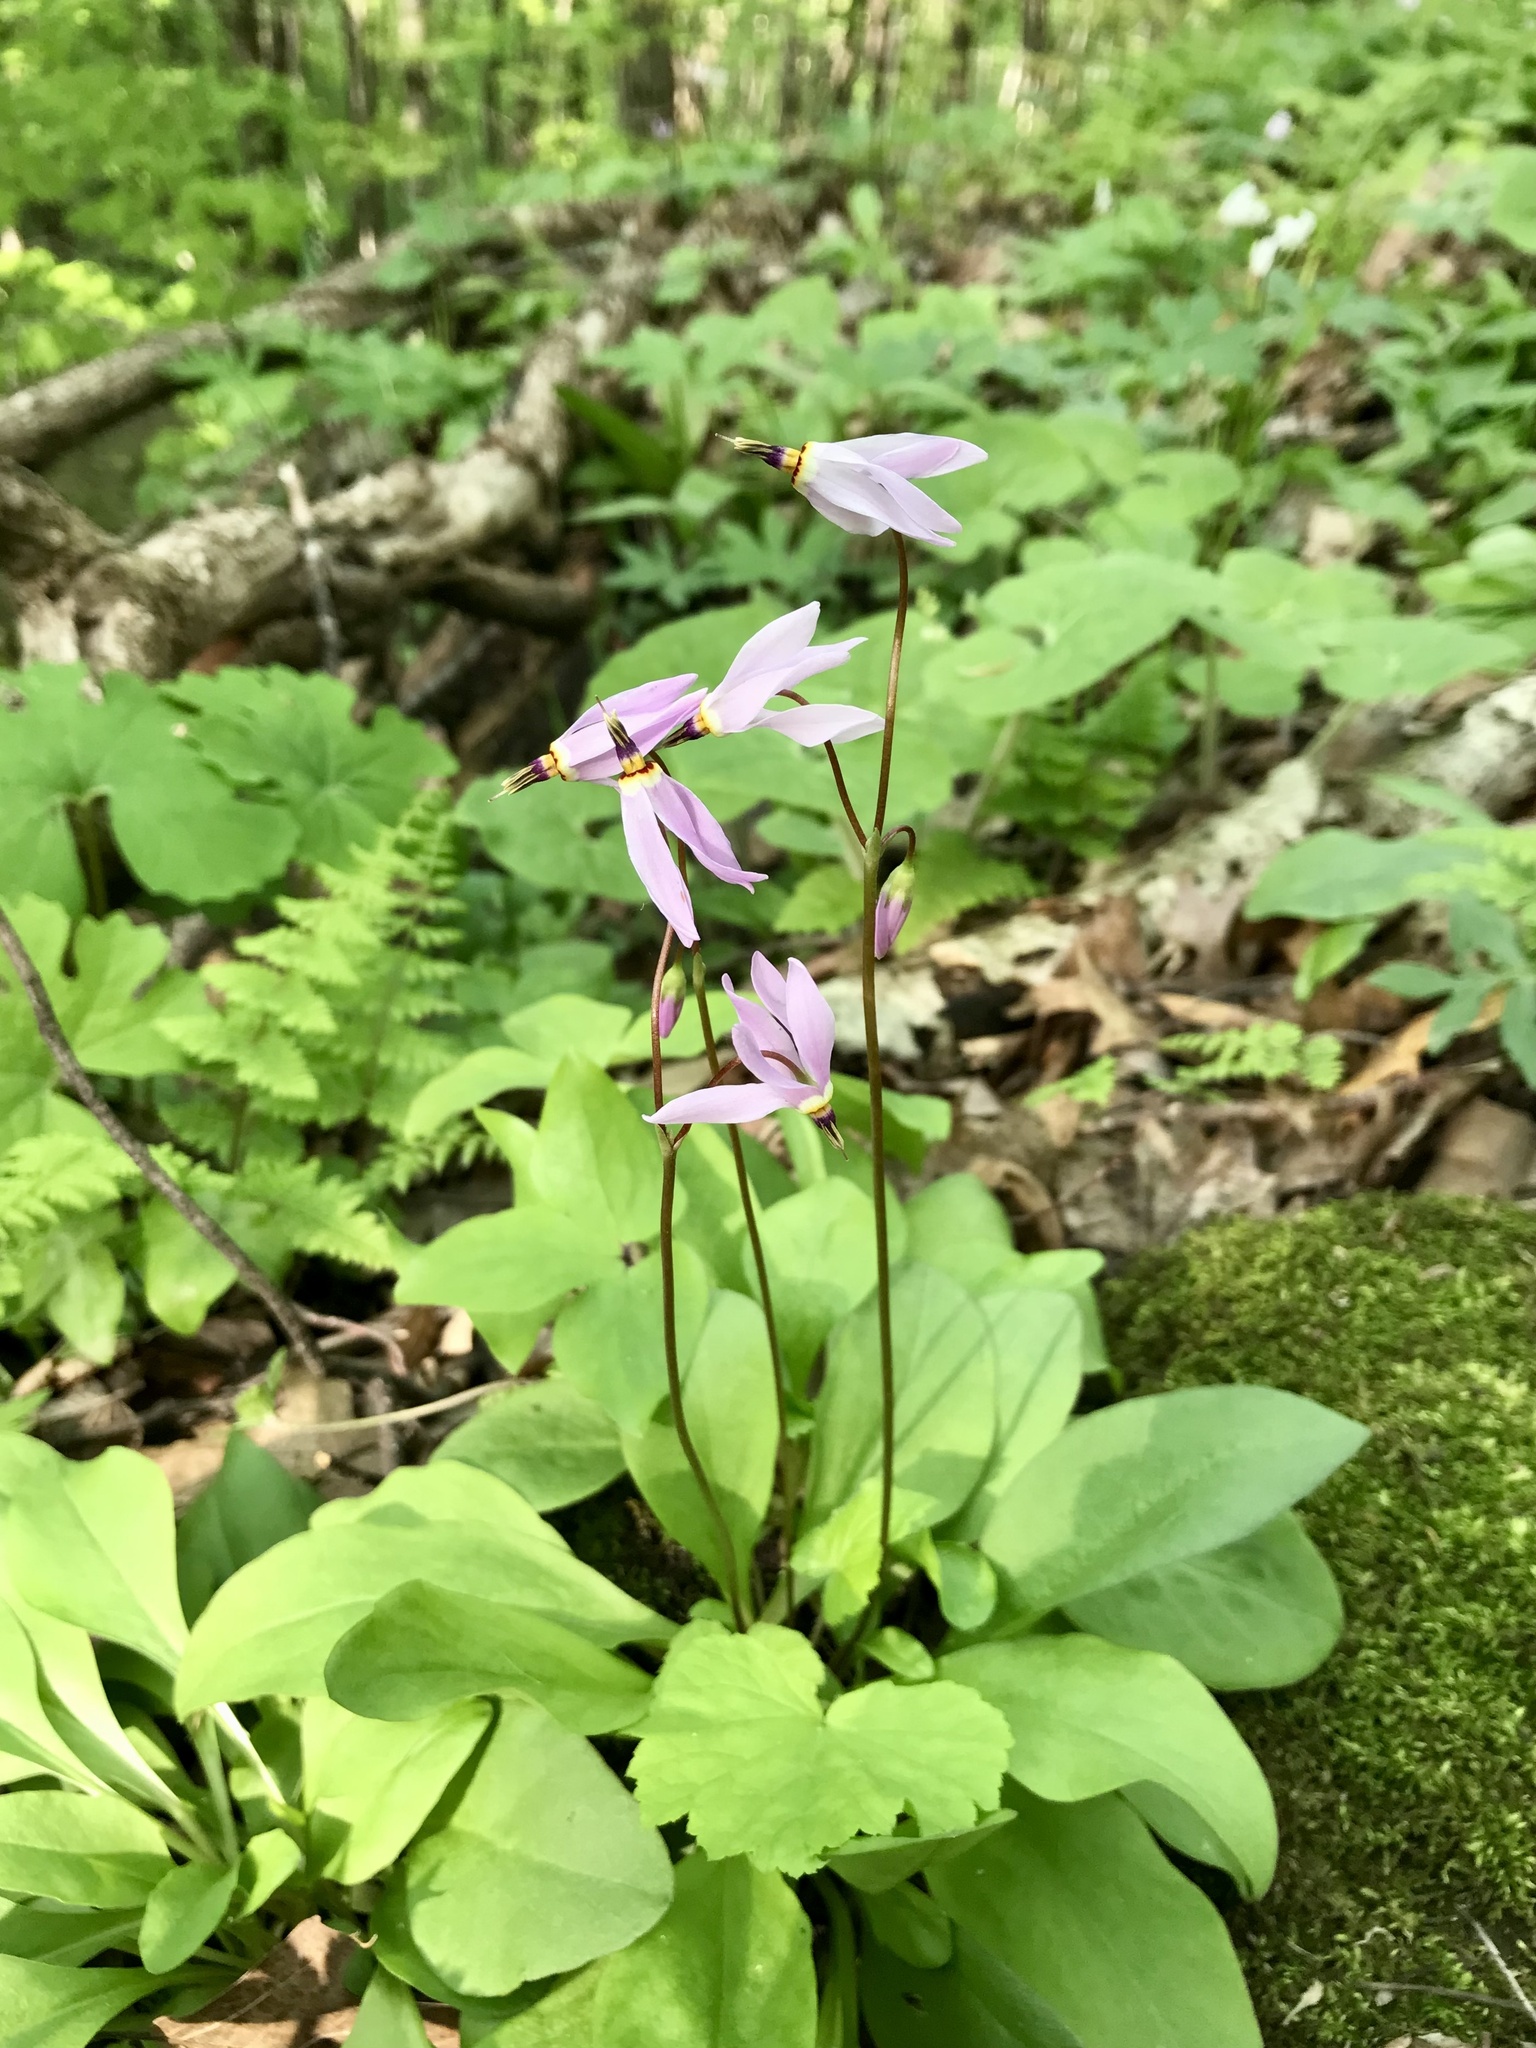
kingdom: Plantae
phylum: Tracheophyta
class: Magnoliopsida
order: Ericales
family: Primulaceae
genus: Dodecatheon
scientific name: Dodecatheon amethystinum
